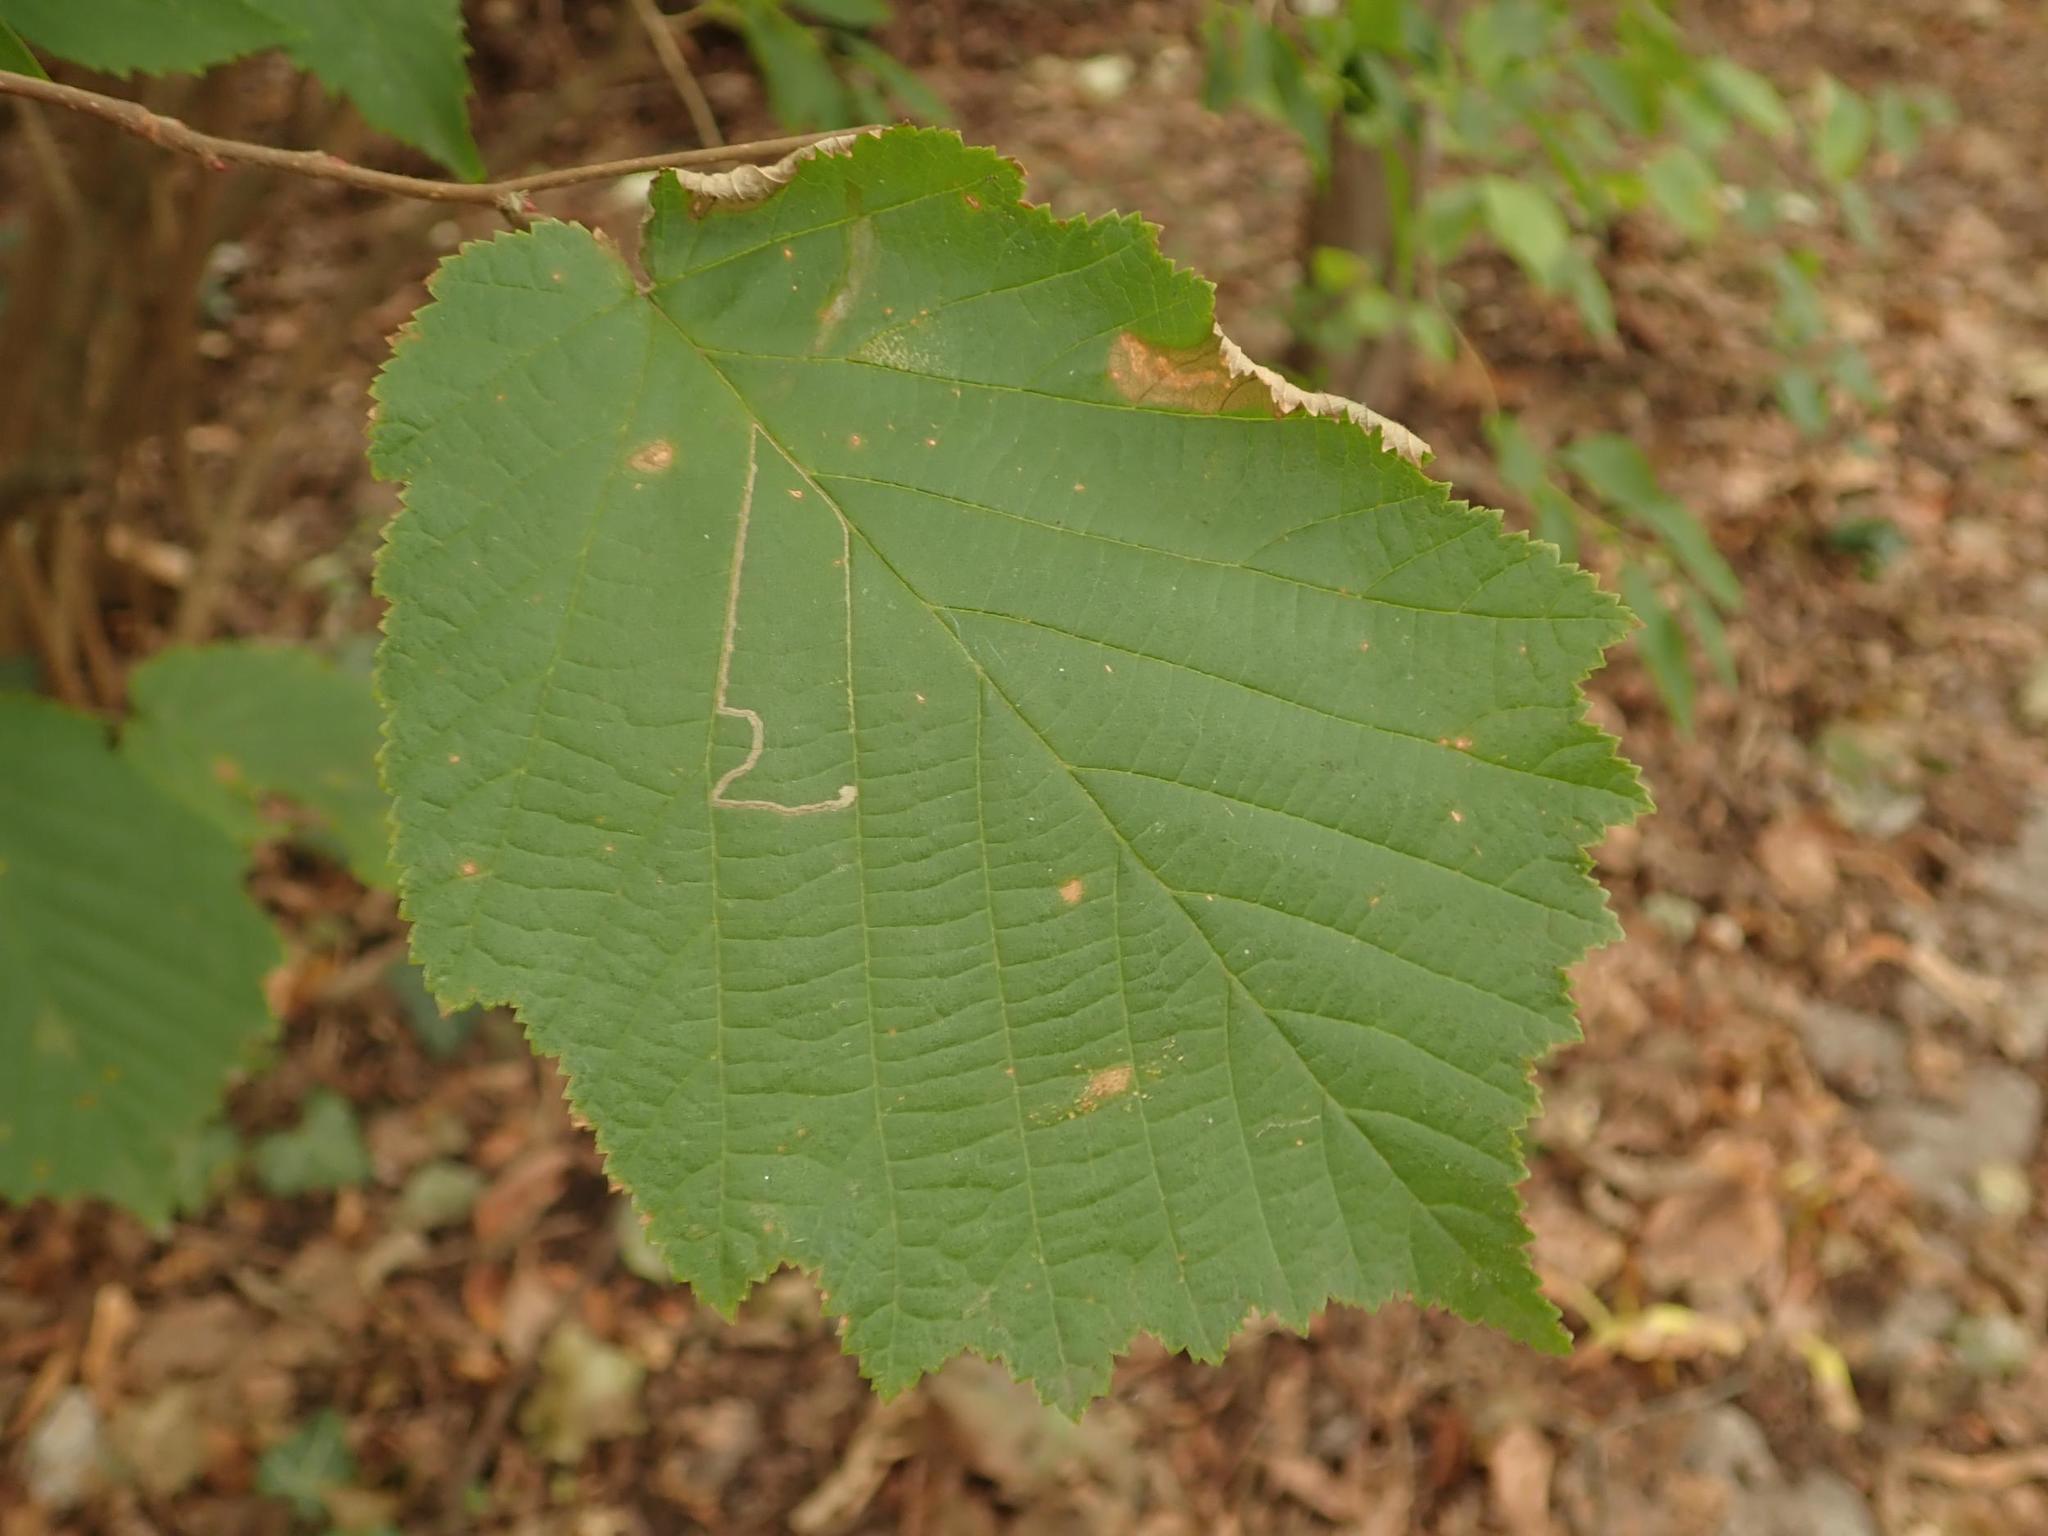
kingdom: Plantae
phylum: Tracheophyta
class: Magnoliopsida
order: Fagales
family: Betulaceae
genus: Corylus
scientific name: Corylus avellana
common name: European hazel
